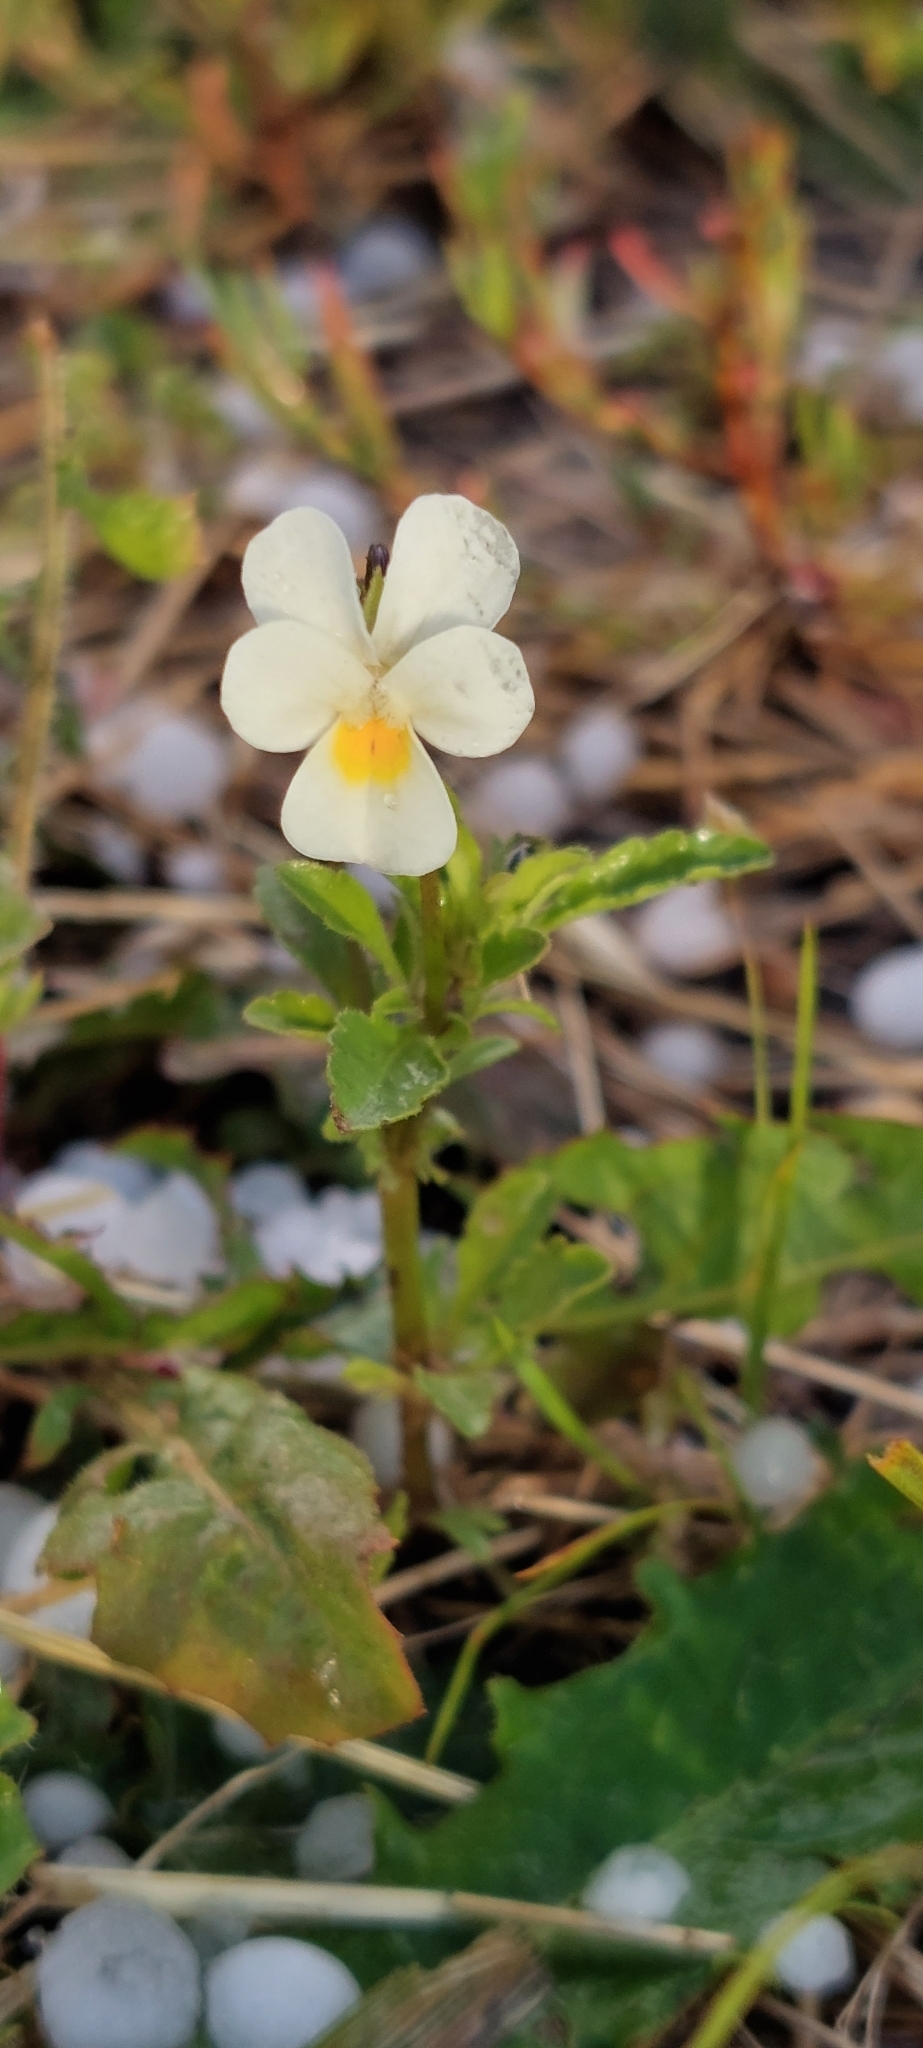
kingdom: Plantae
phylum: Tracheophyta
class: Magnoliopsida
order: Malpighiales
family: Violaceae
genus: Viola
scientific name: Viola arvensis
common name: Field pansy
